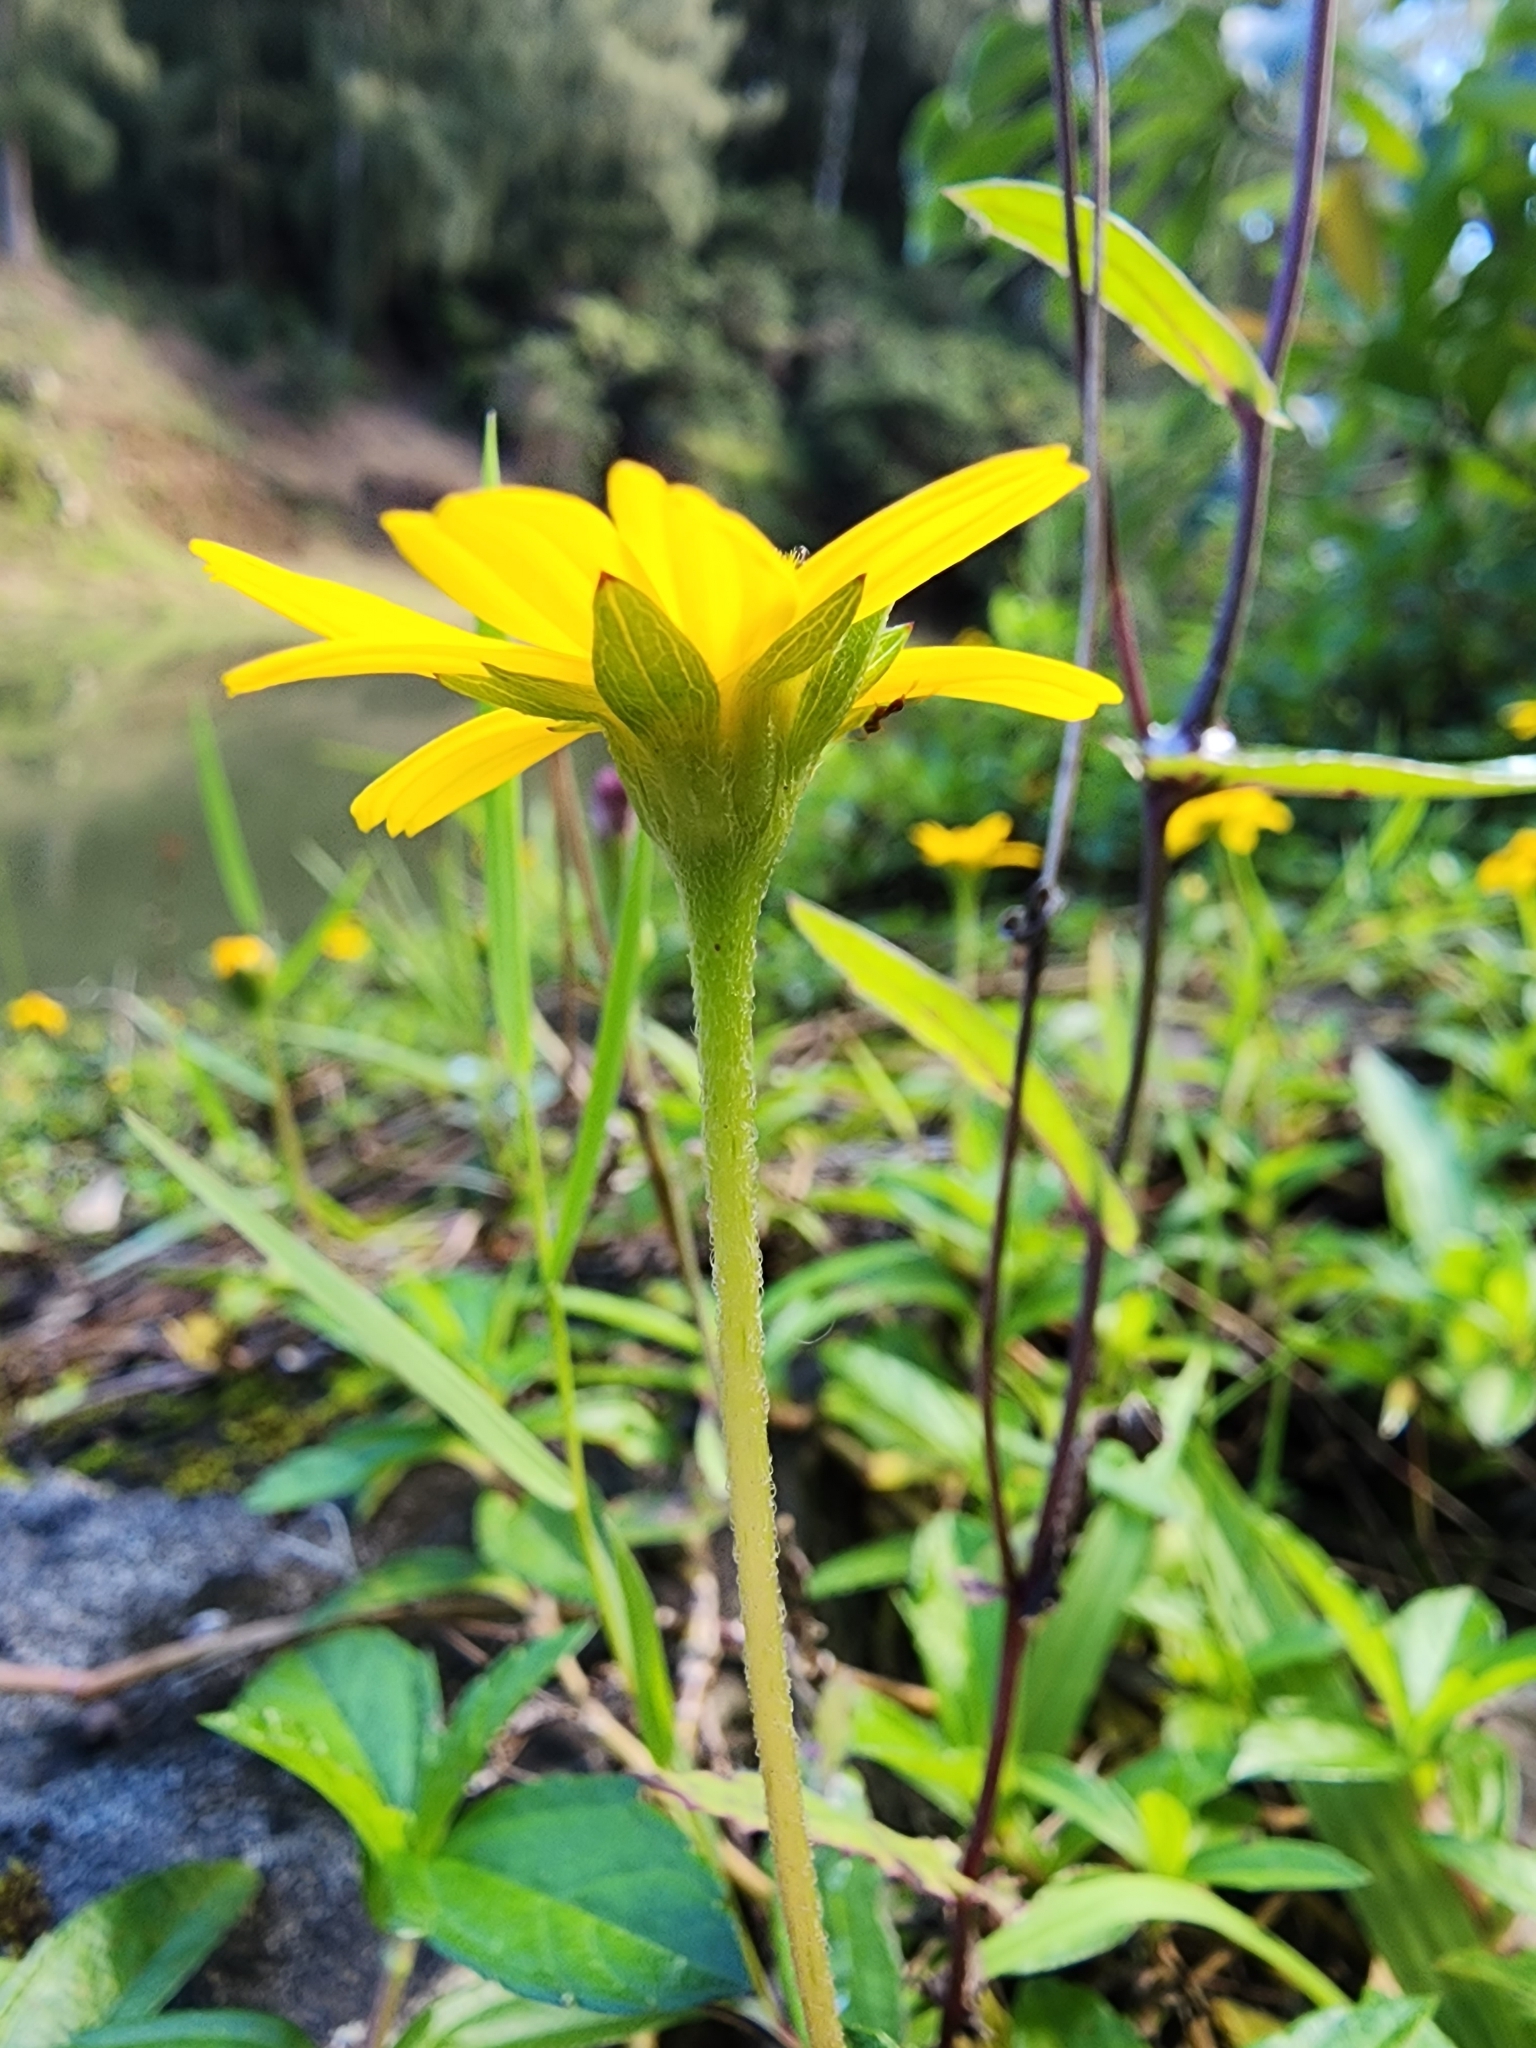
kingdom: Plantae
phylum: Tracheophyta
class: Magnoliopsida
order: Asterales
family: Asteraceae
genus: Sphagneticola
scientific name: Sphagneticola trilobata
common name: Bay biscayne creeping-oxeye
